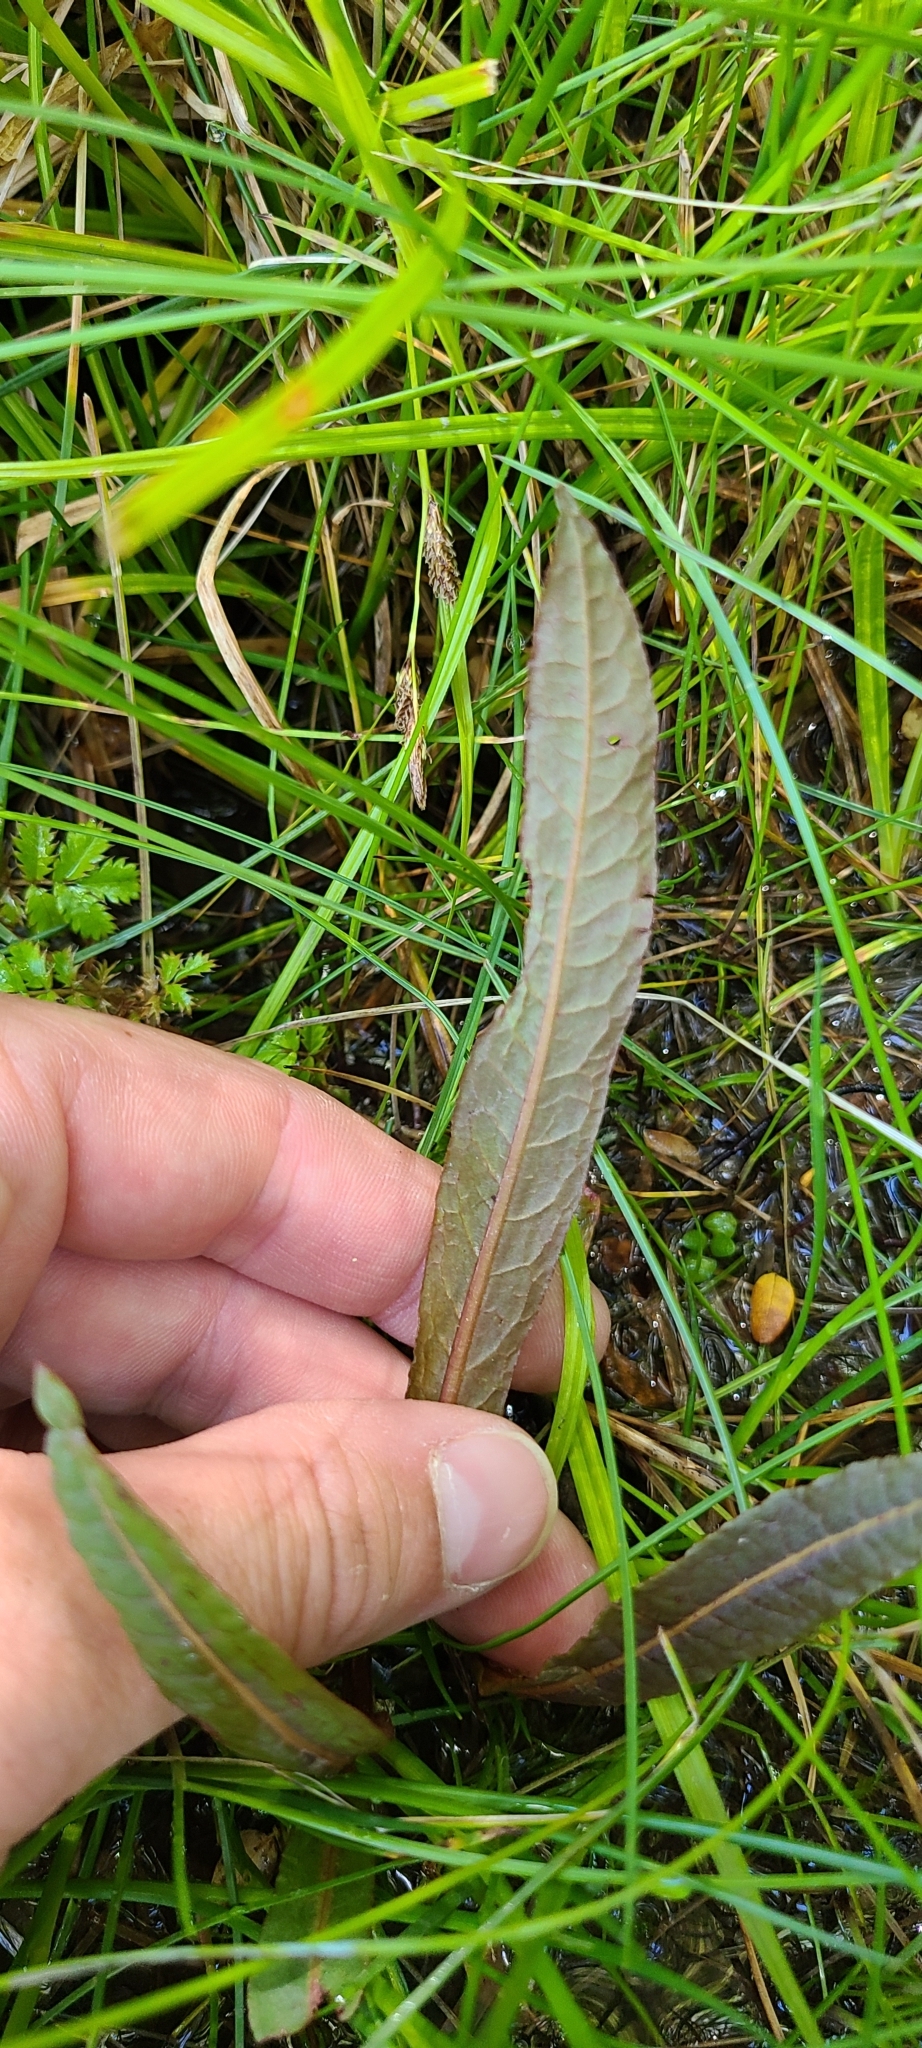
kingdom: Plantae
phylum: Tracheophyta
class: Magnoliopsida
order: Caryophyllales
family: Polygonaceae
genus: Rumex
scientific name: Rumex flexuosus
